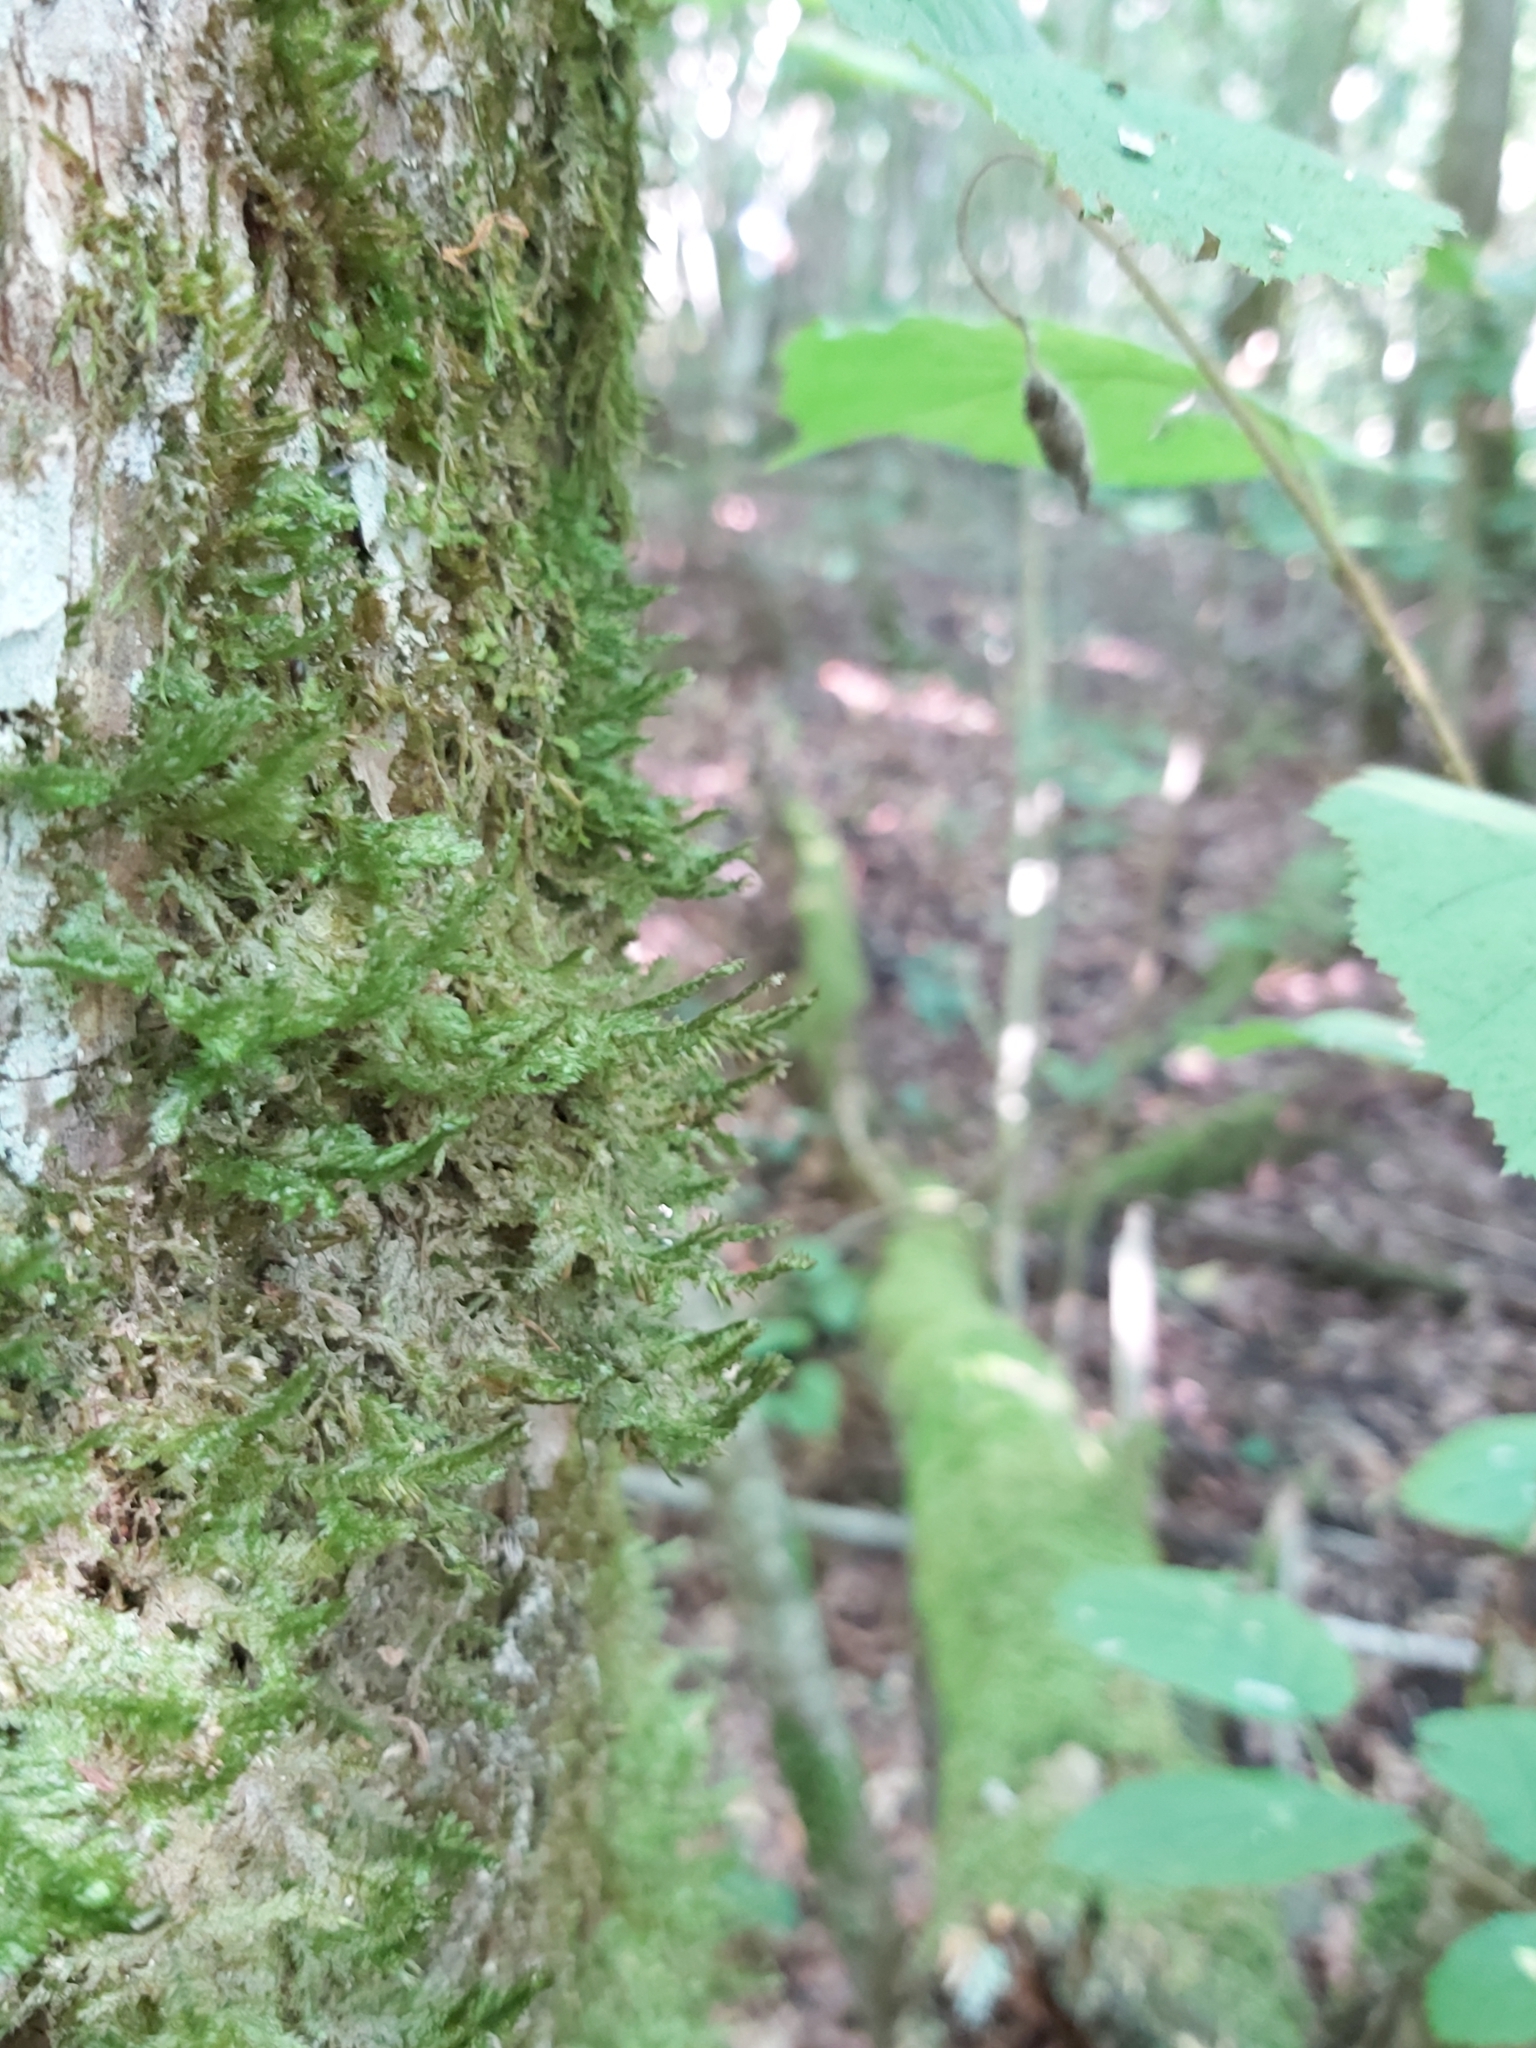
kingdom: Plantae
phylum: Bryophyta
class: Bryopsida
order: Hypnales
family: Neckeraceae
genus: Neckera
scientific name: Neckera pennata
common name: Feathery neckera
